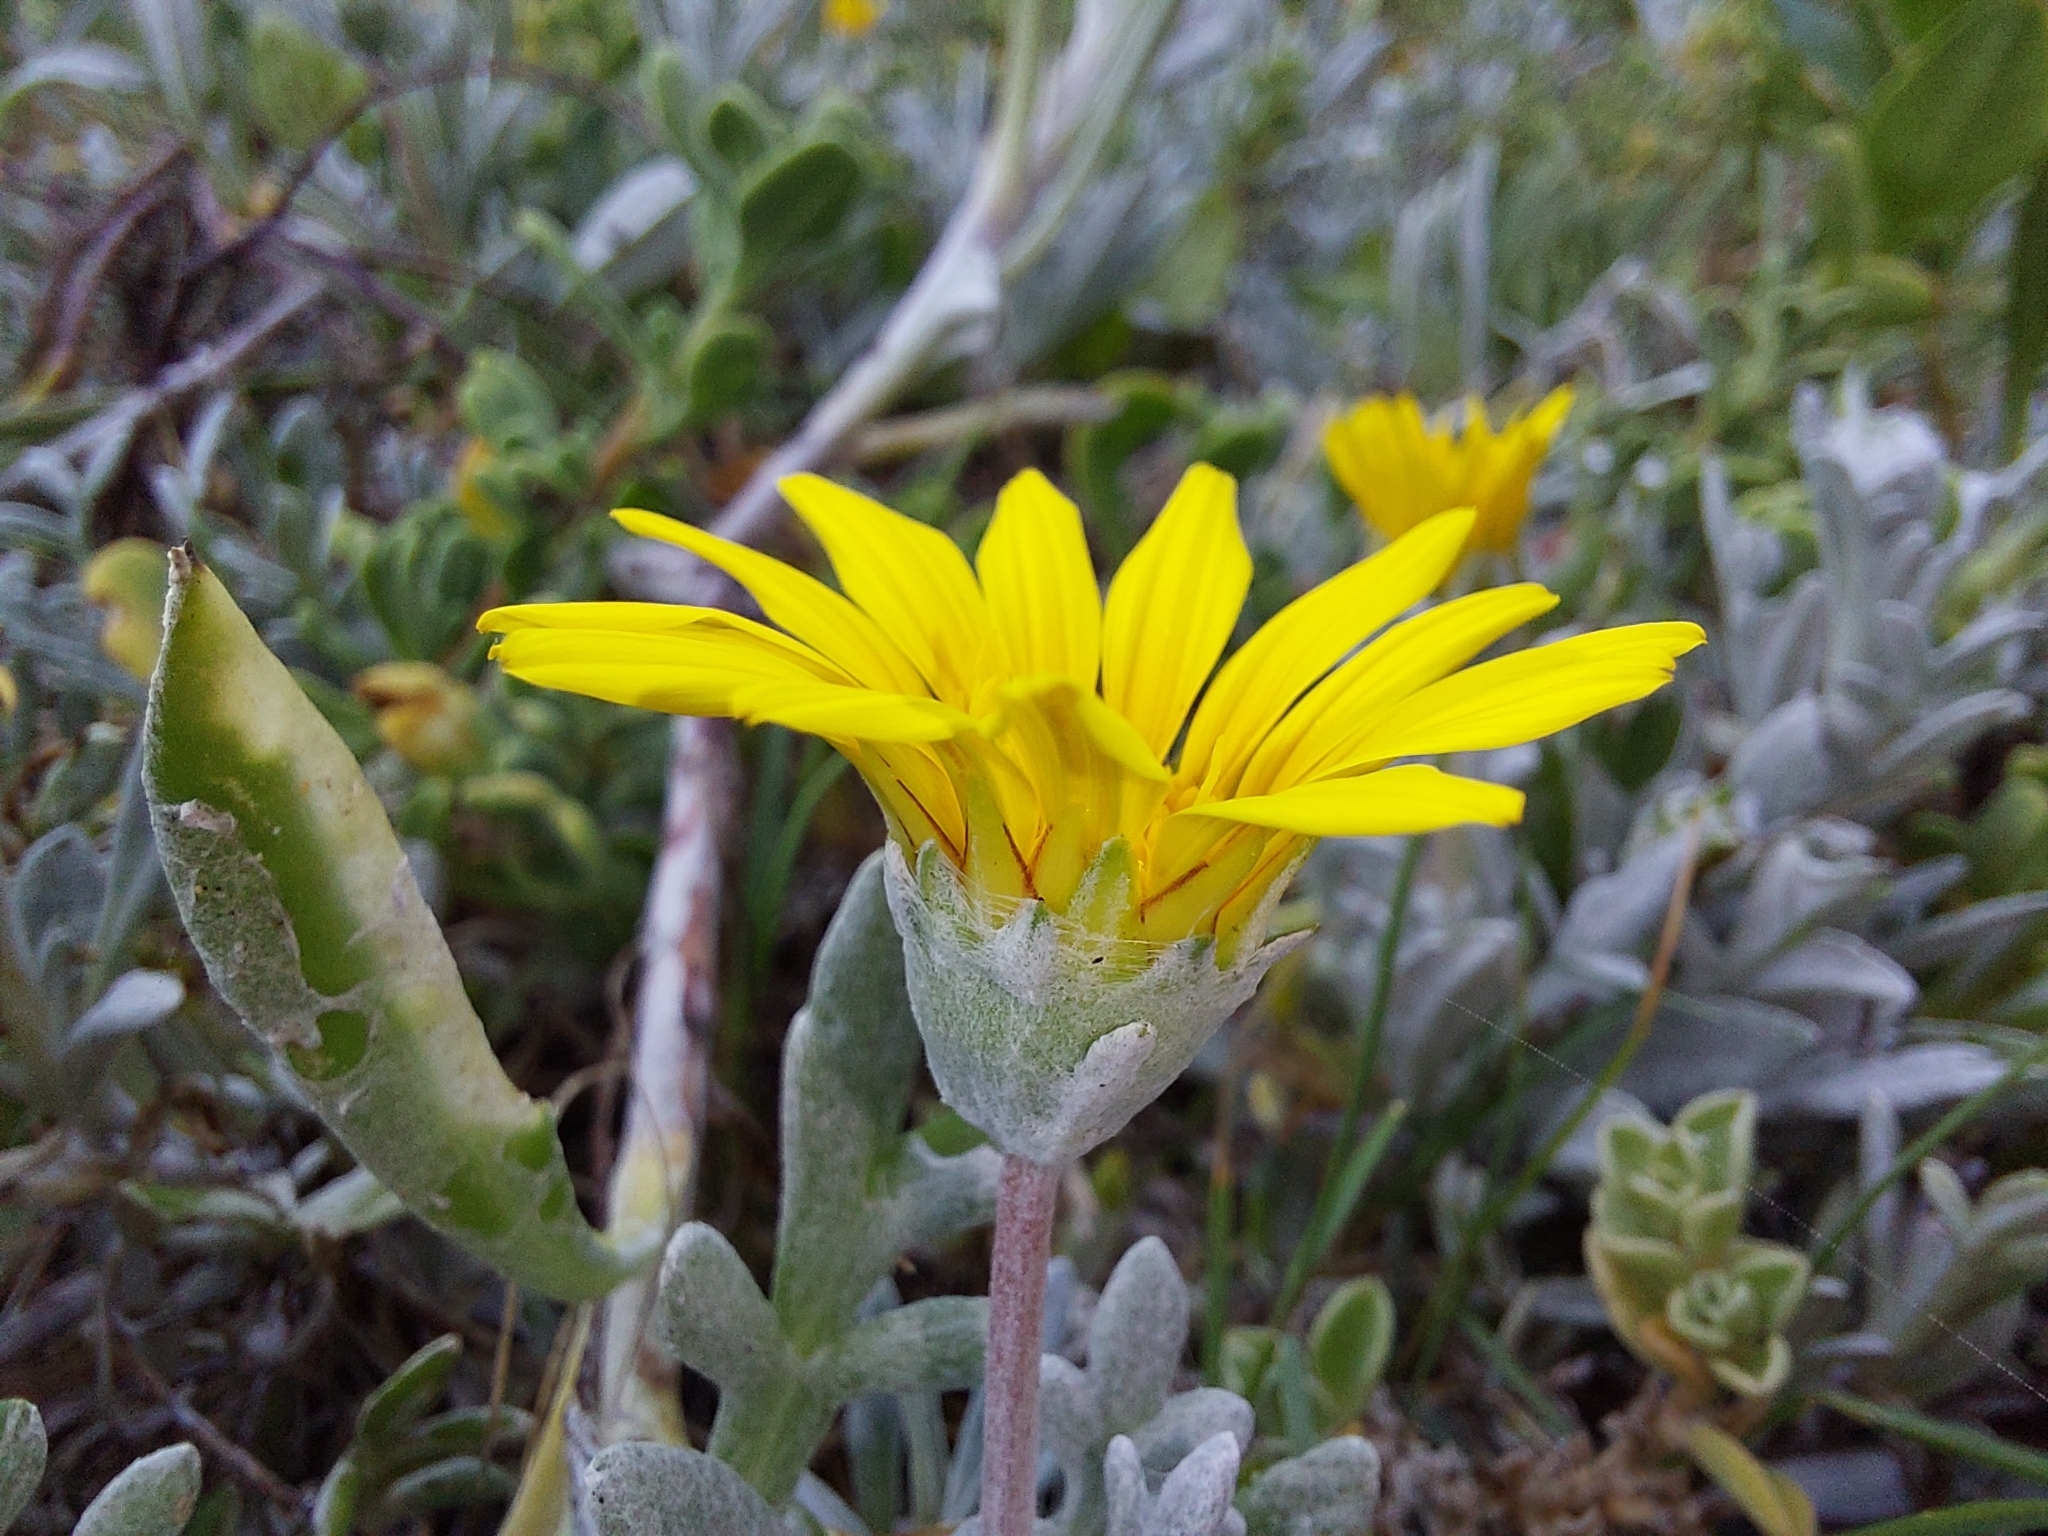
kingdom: Plantae
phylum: Tracheophyta
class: Magnoliopsida
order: Asterales
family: Asteraceae
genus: Gazania
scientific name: Gazania rigens
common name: Treasureflower
